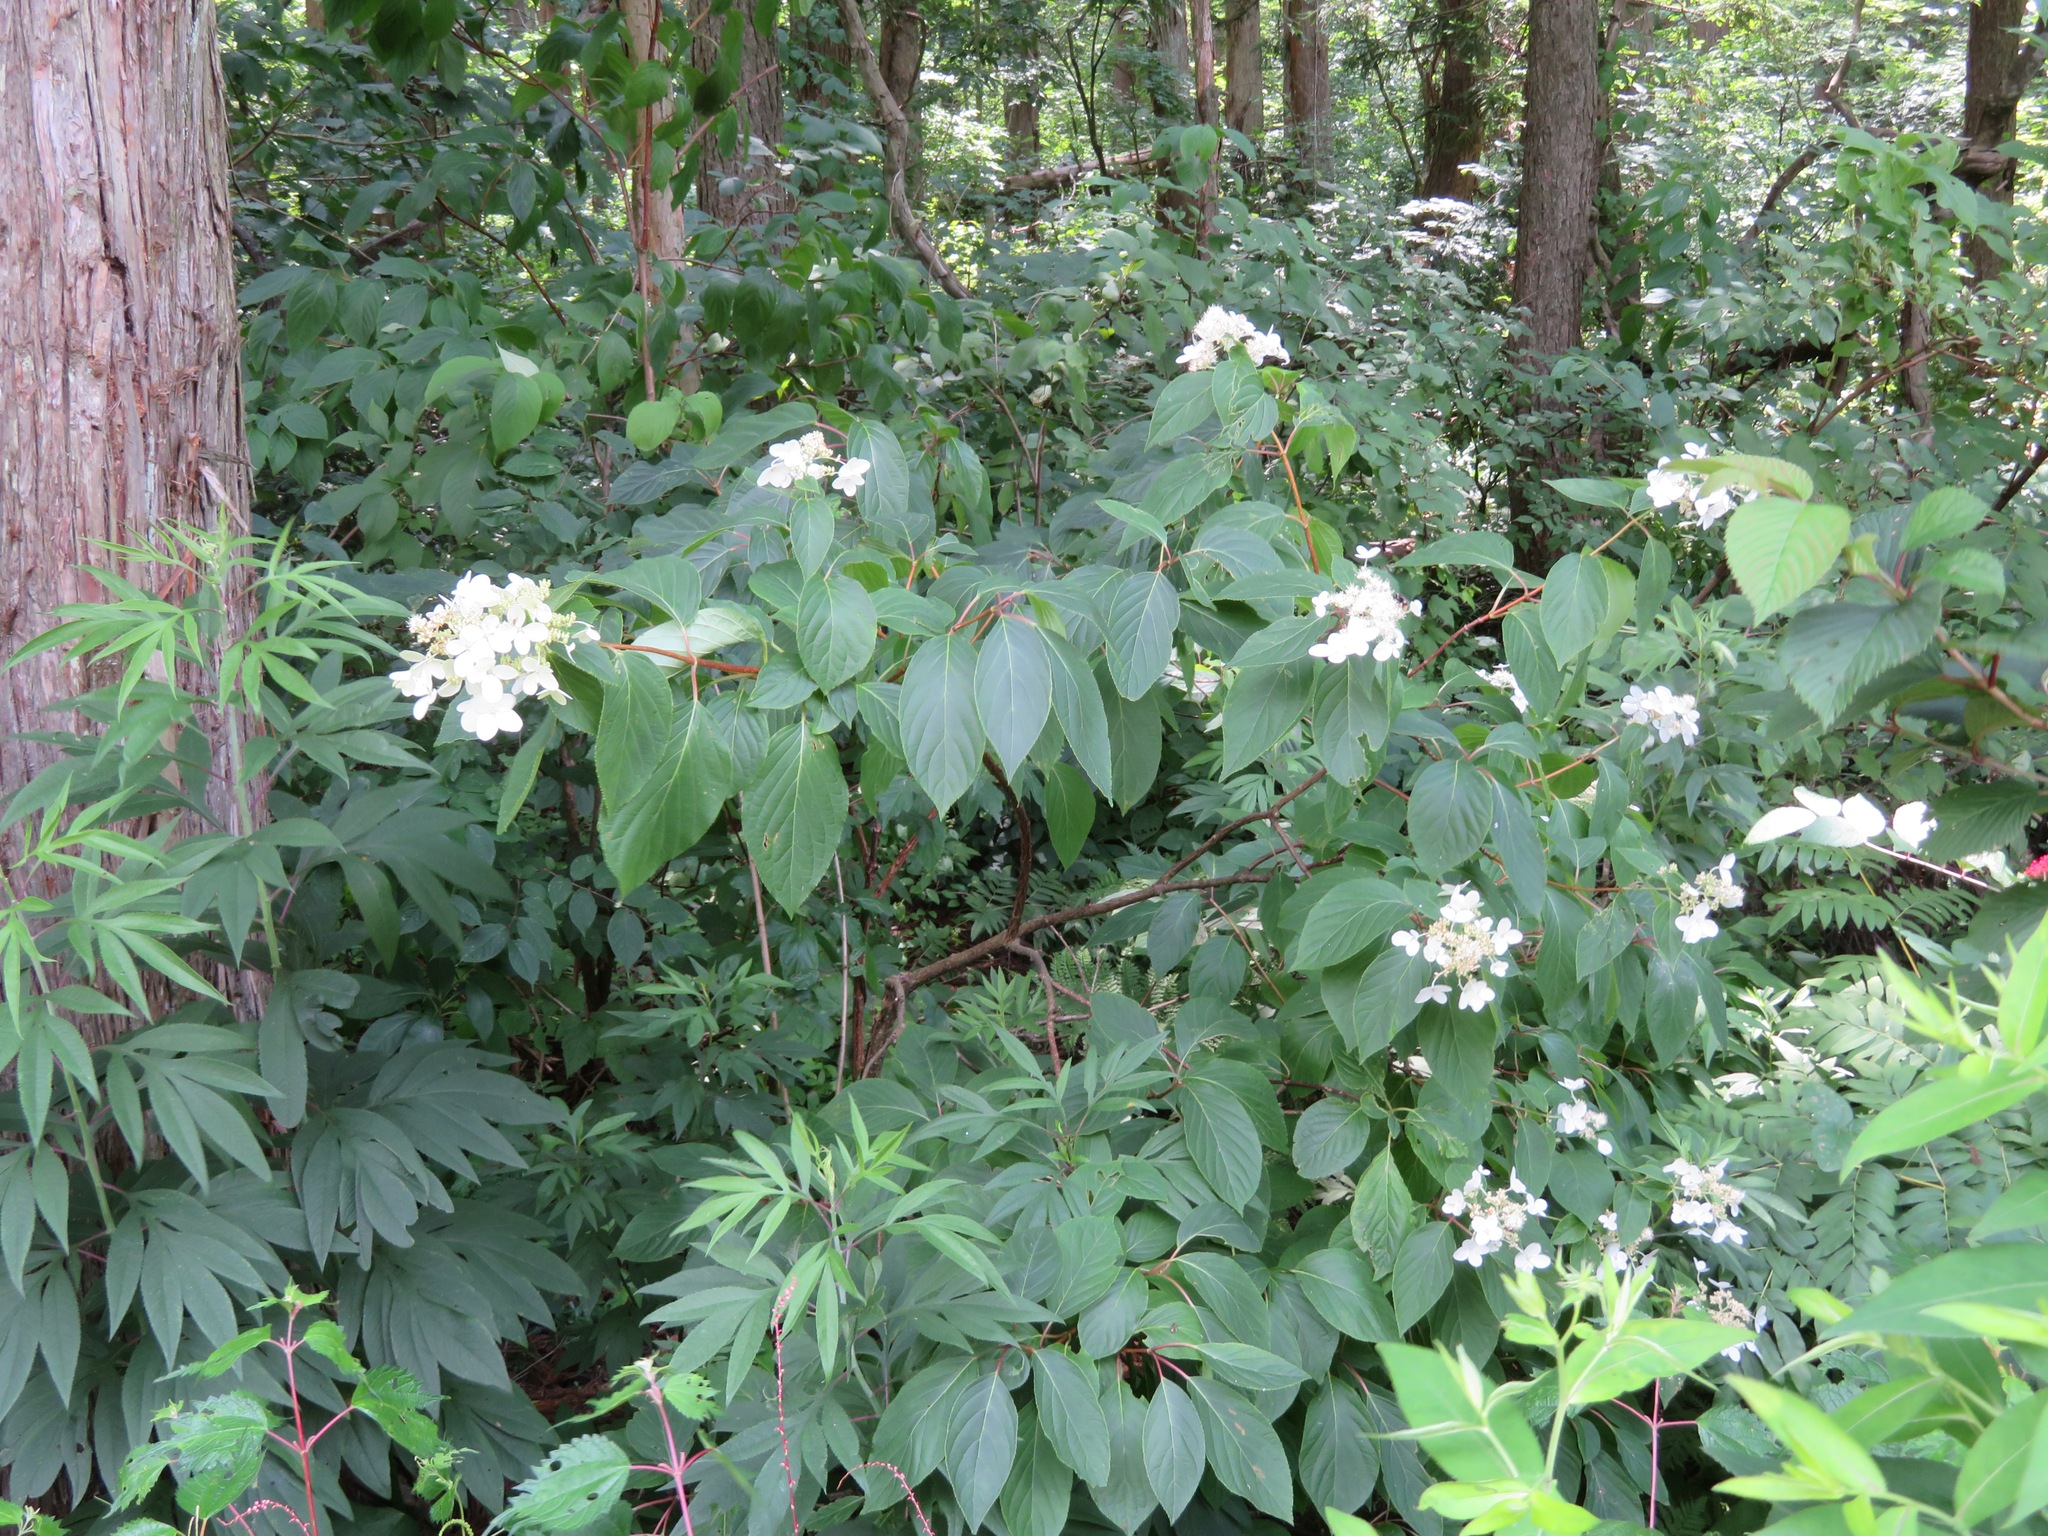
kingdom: Plantae
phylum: Tracheophyta
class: Magnoliopsida
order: Cornales
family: Hydrangeaceae
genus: Hydrangea
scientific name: Hydrangea paniculata
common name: Panicled hydrangea
